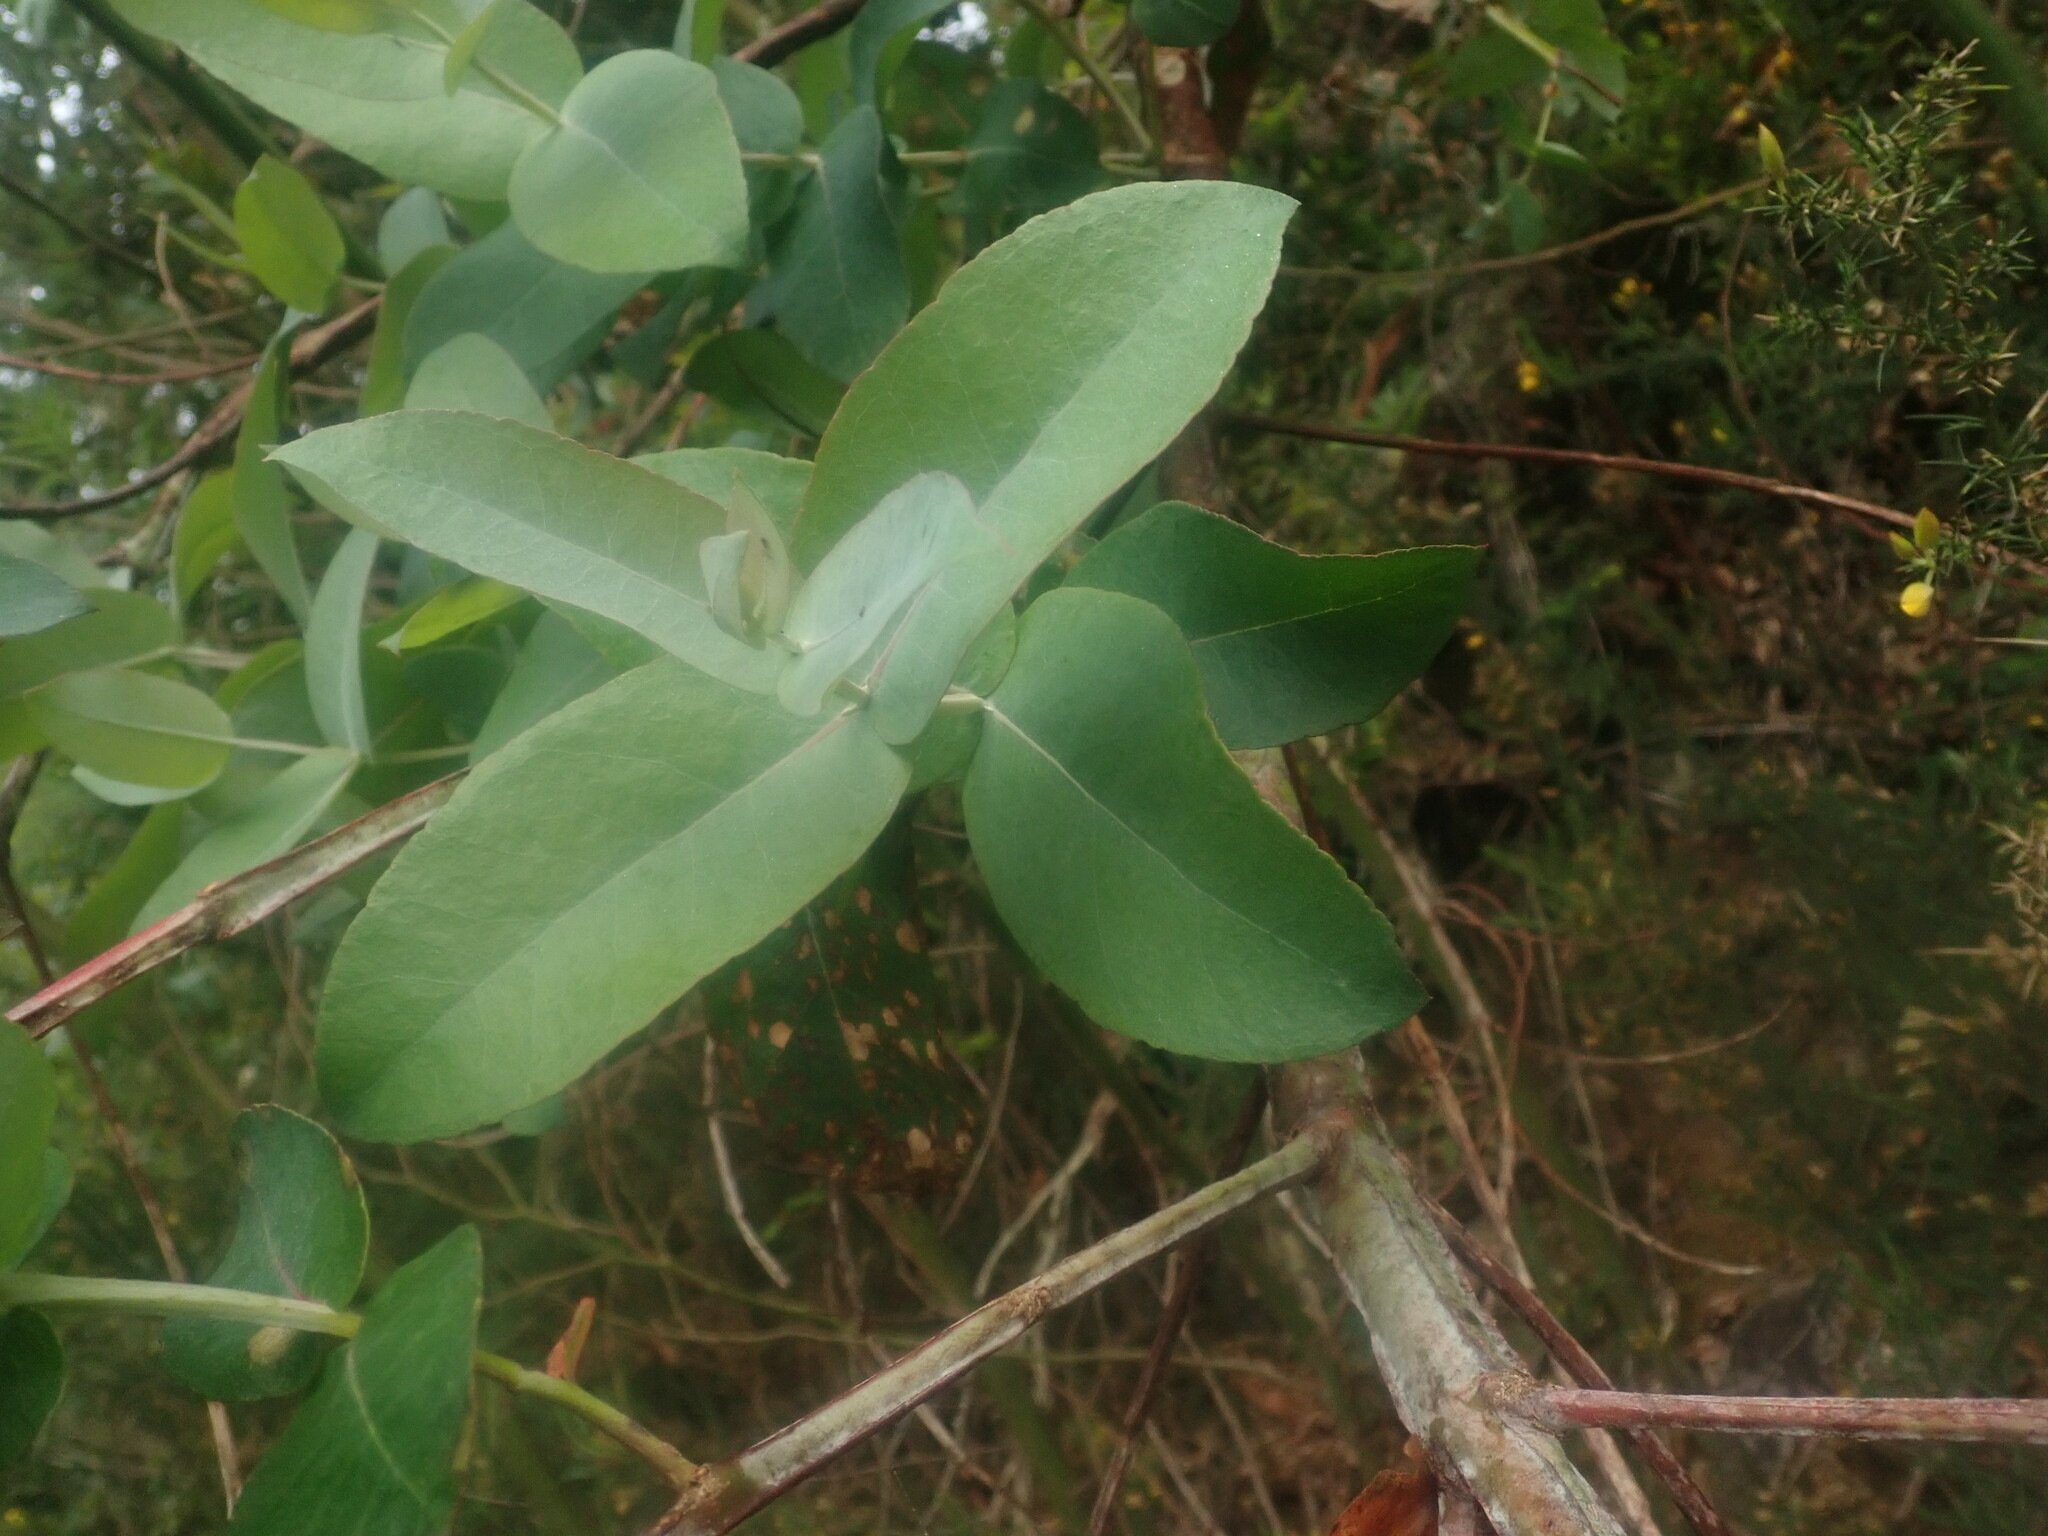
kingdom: Plantae
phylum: Tracheophyta
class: Magnoliopsida
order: Myrtales
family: Myrtaceae
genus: Eucalyptus
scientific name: Eucalyptus globulus
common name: Southern blue-gum
